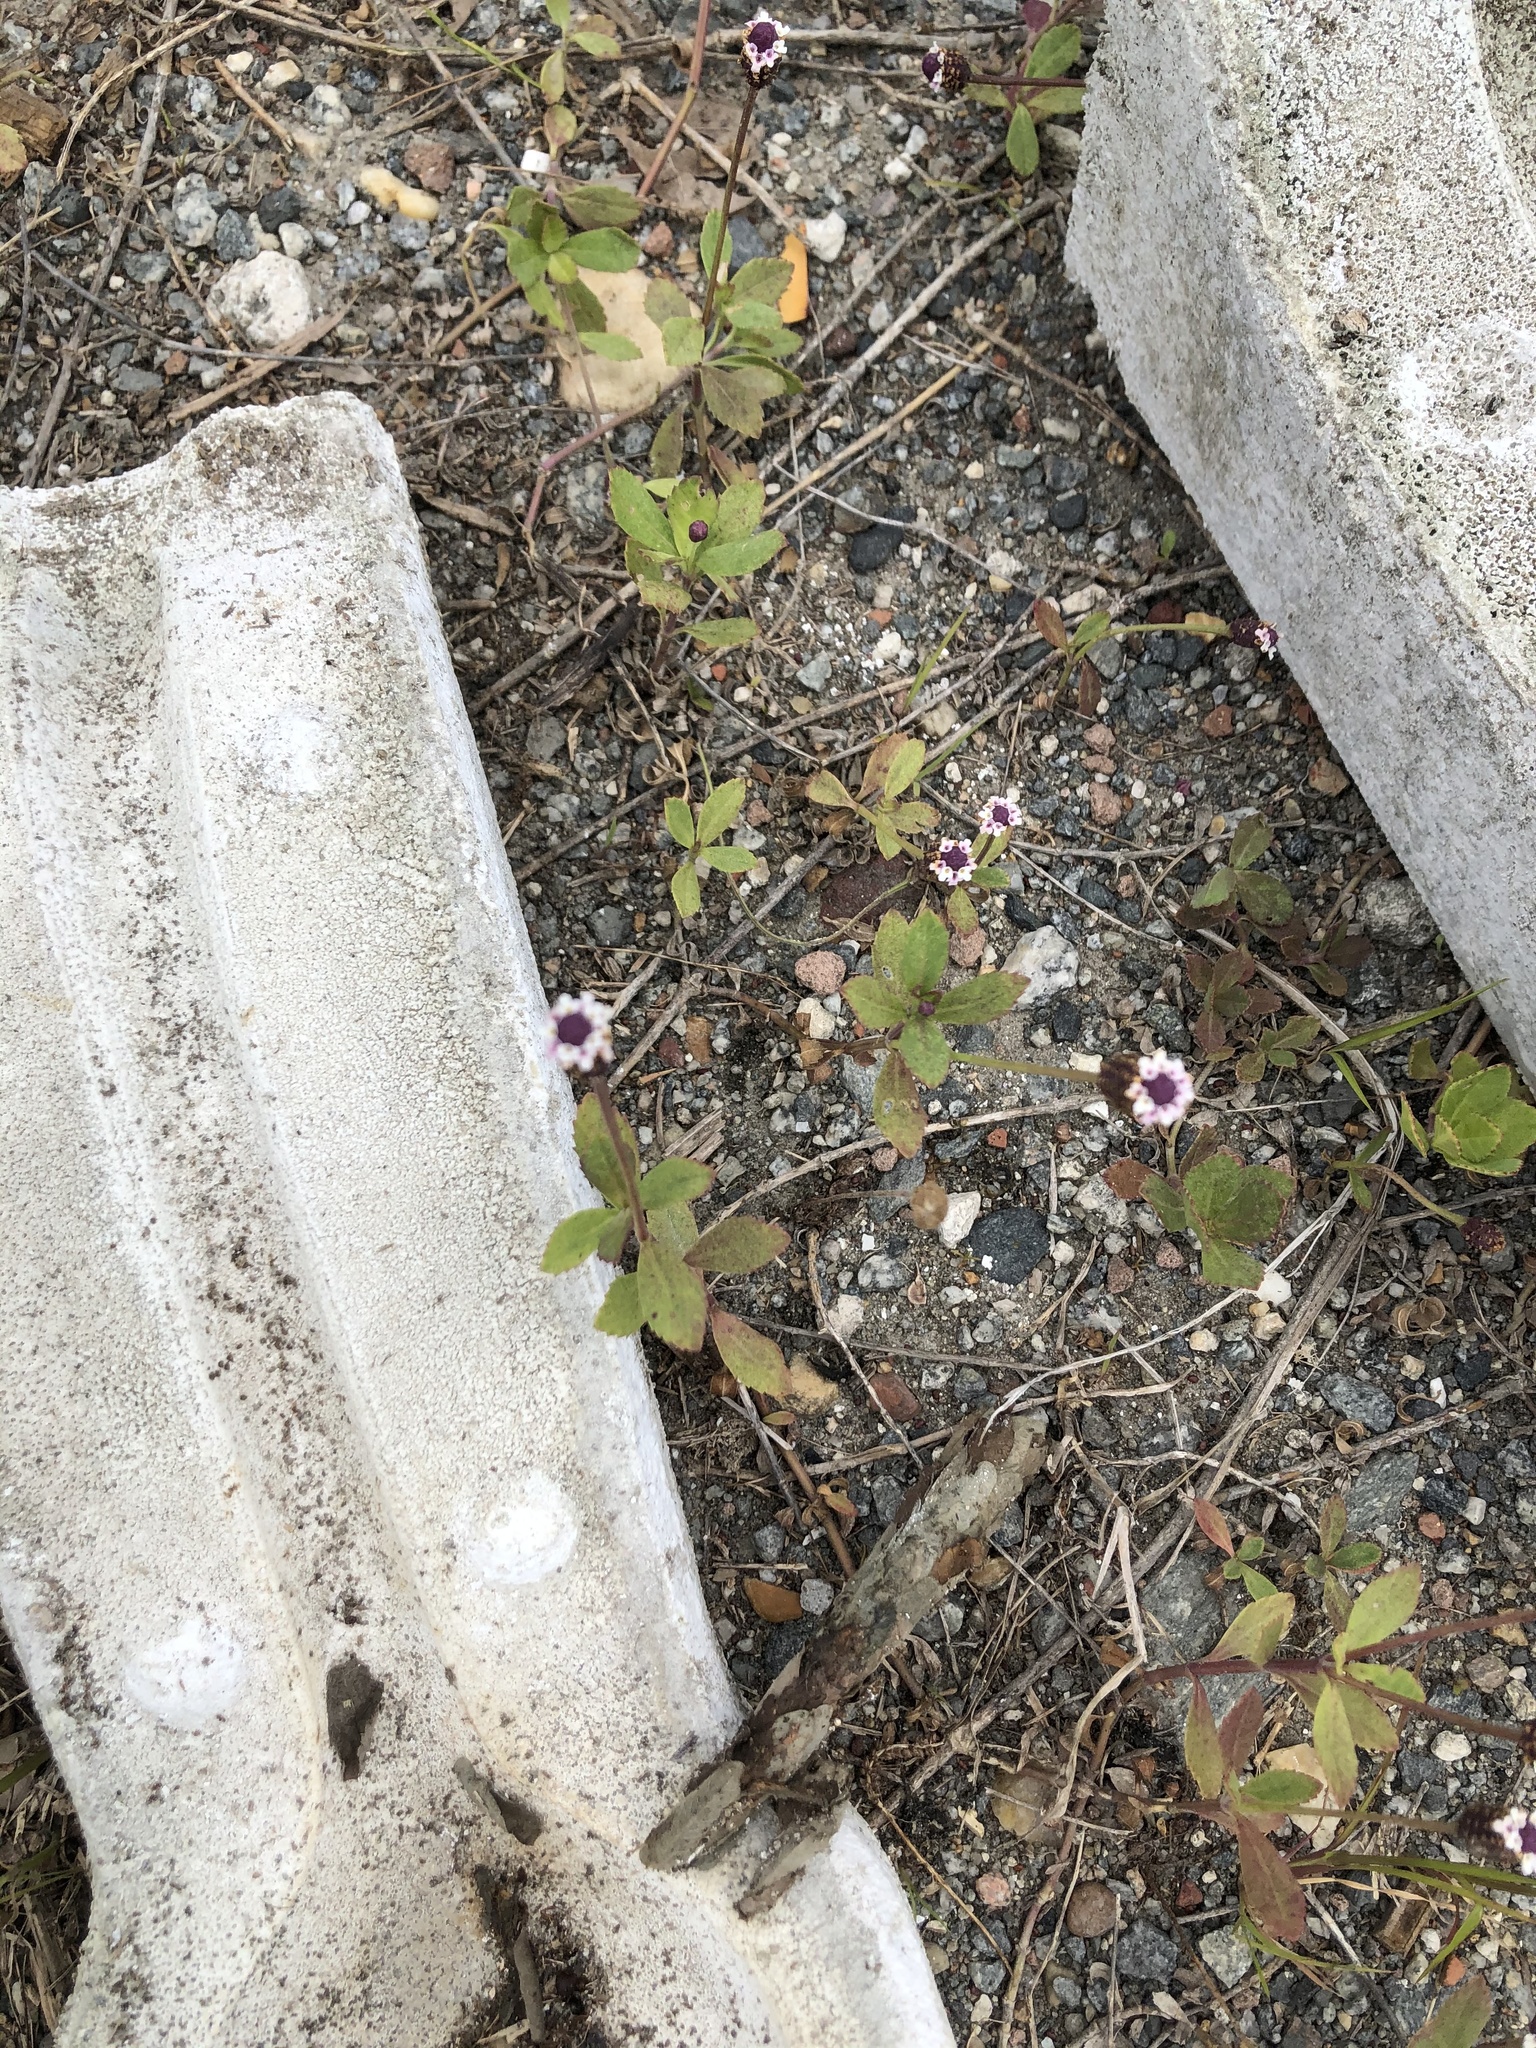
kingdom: Plantae
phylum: Tracheophyta
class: Magnoliopsida
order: Lamiales
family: Verbenaceae
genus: Phyla
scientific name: Phyla nodiflora
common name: Frogfruit
